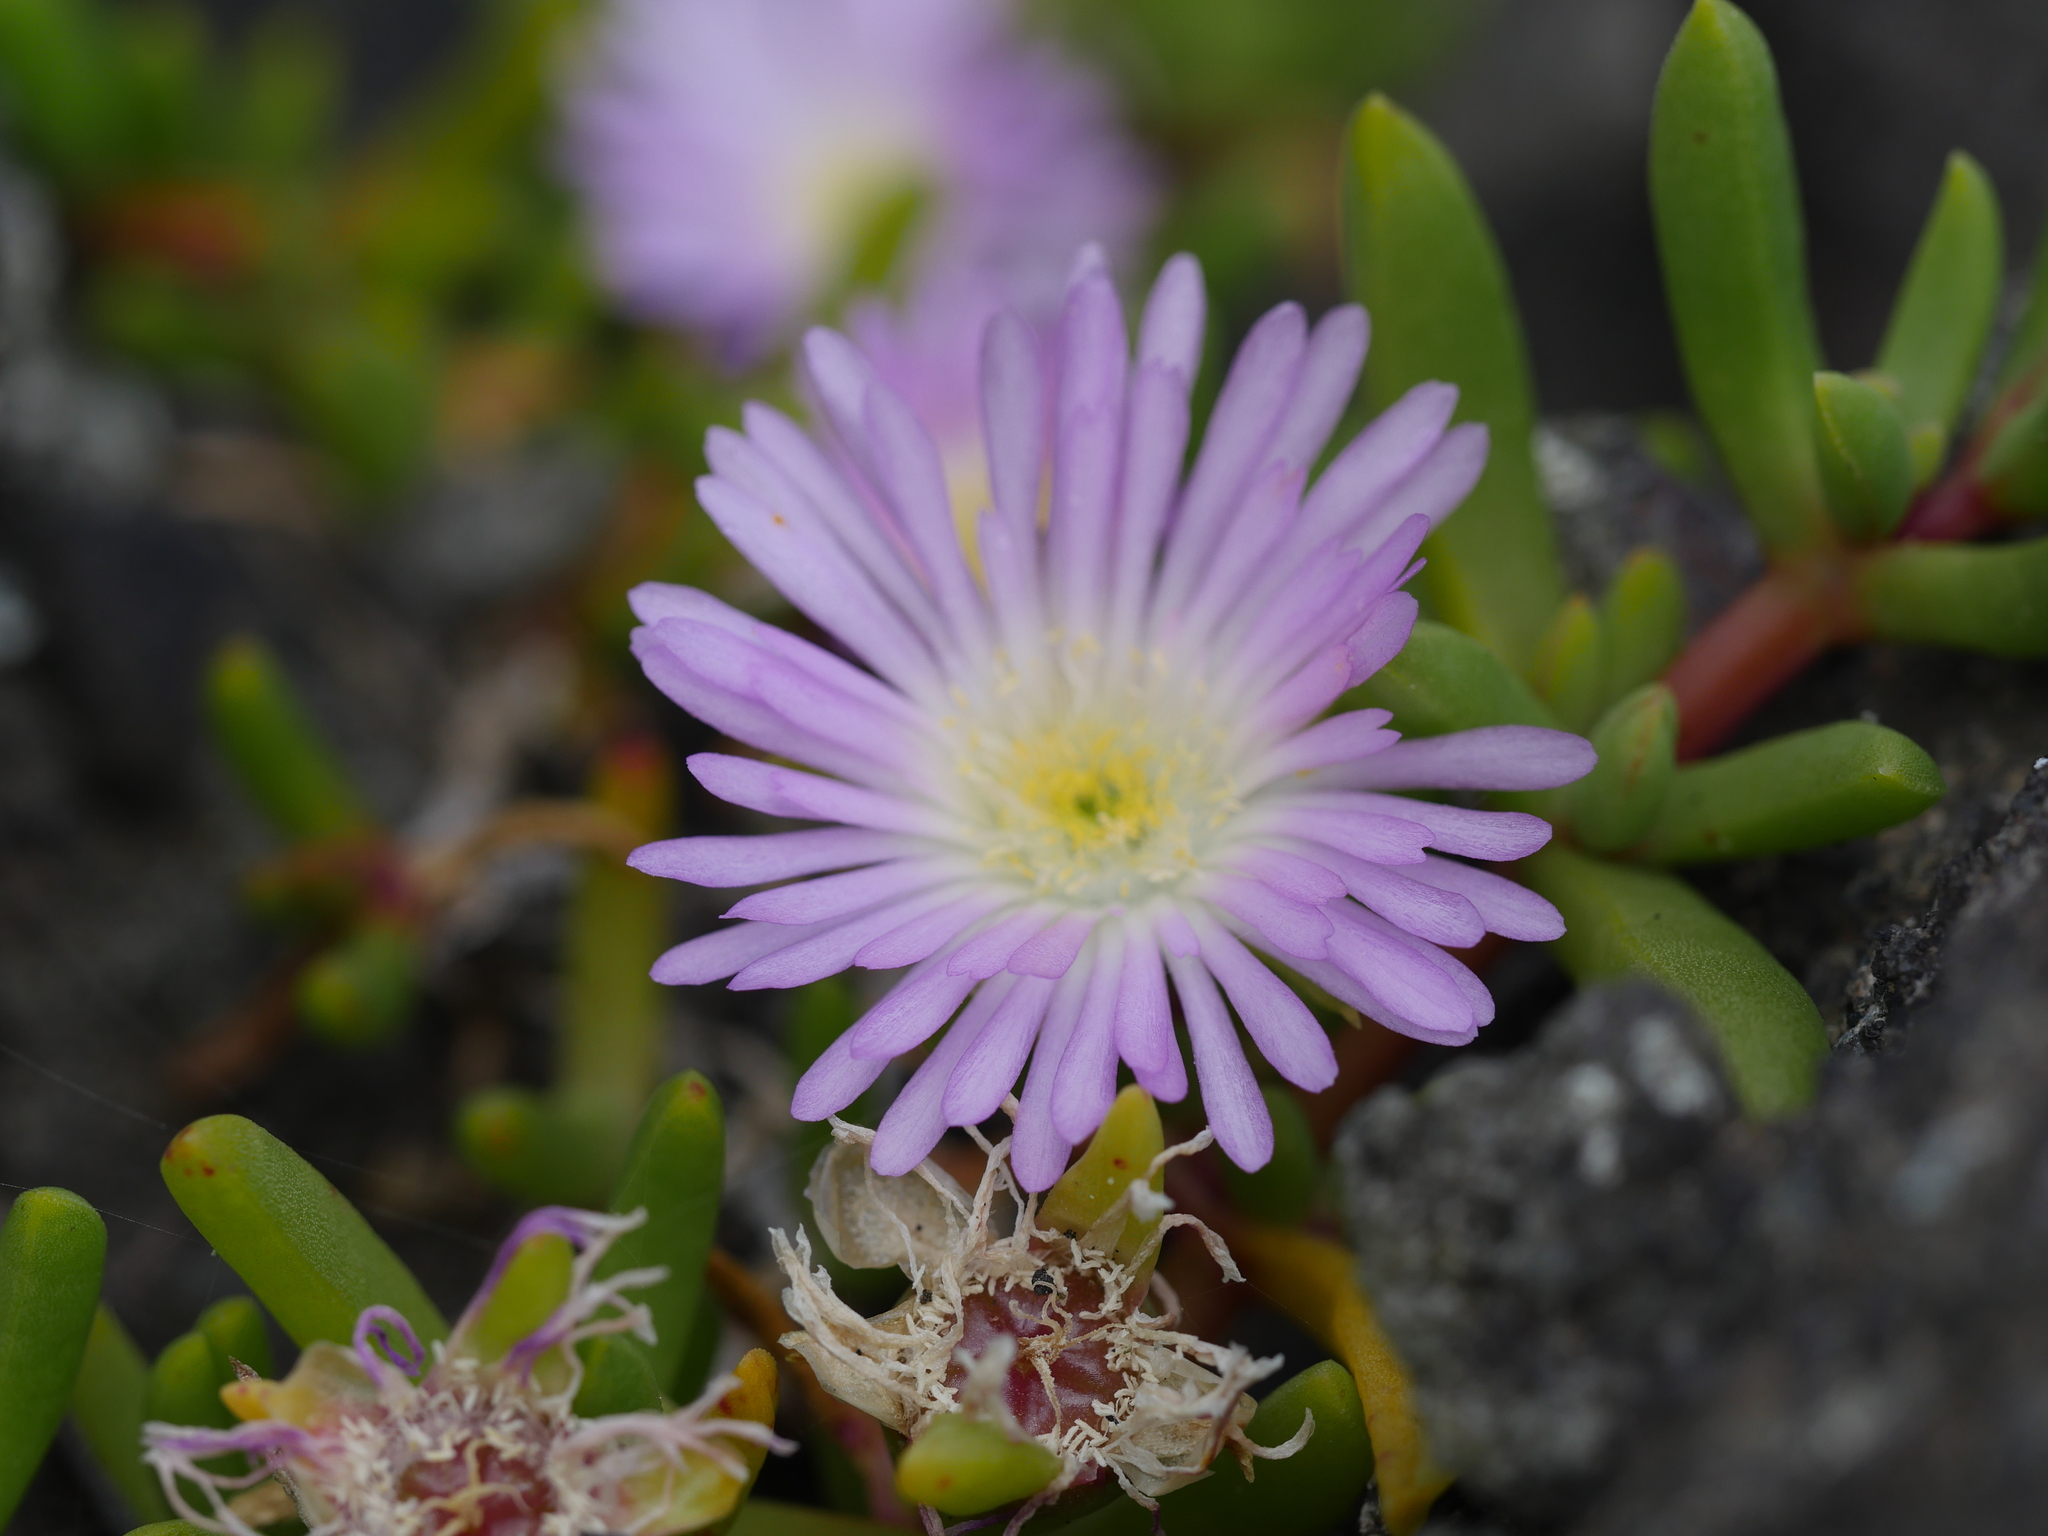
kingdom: Plantae
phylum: Tracheophyta
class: Magnoliopsida
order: Caryophyllales
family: Aizoaceae
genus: Disphyma
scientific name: Disphyma australe
